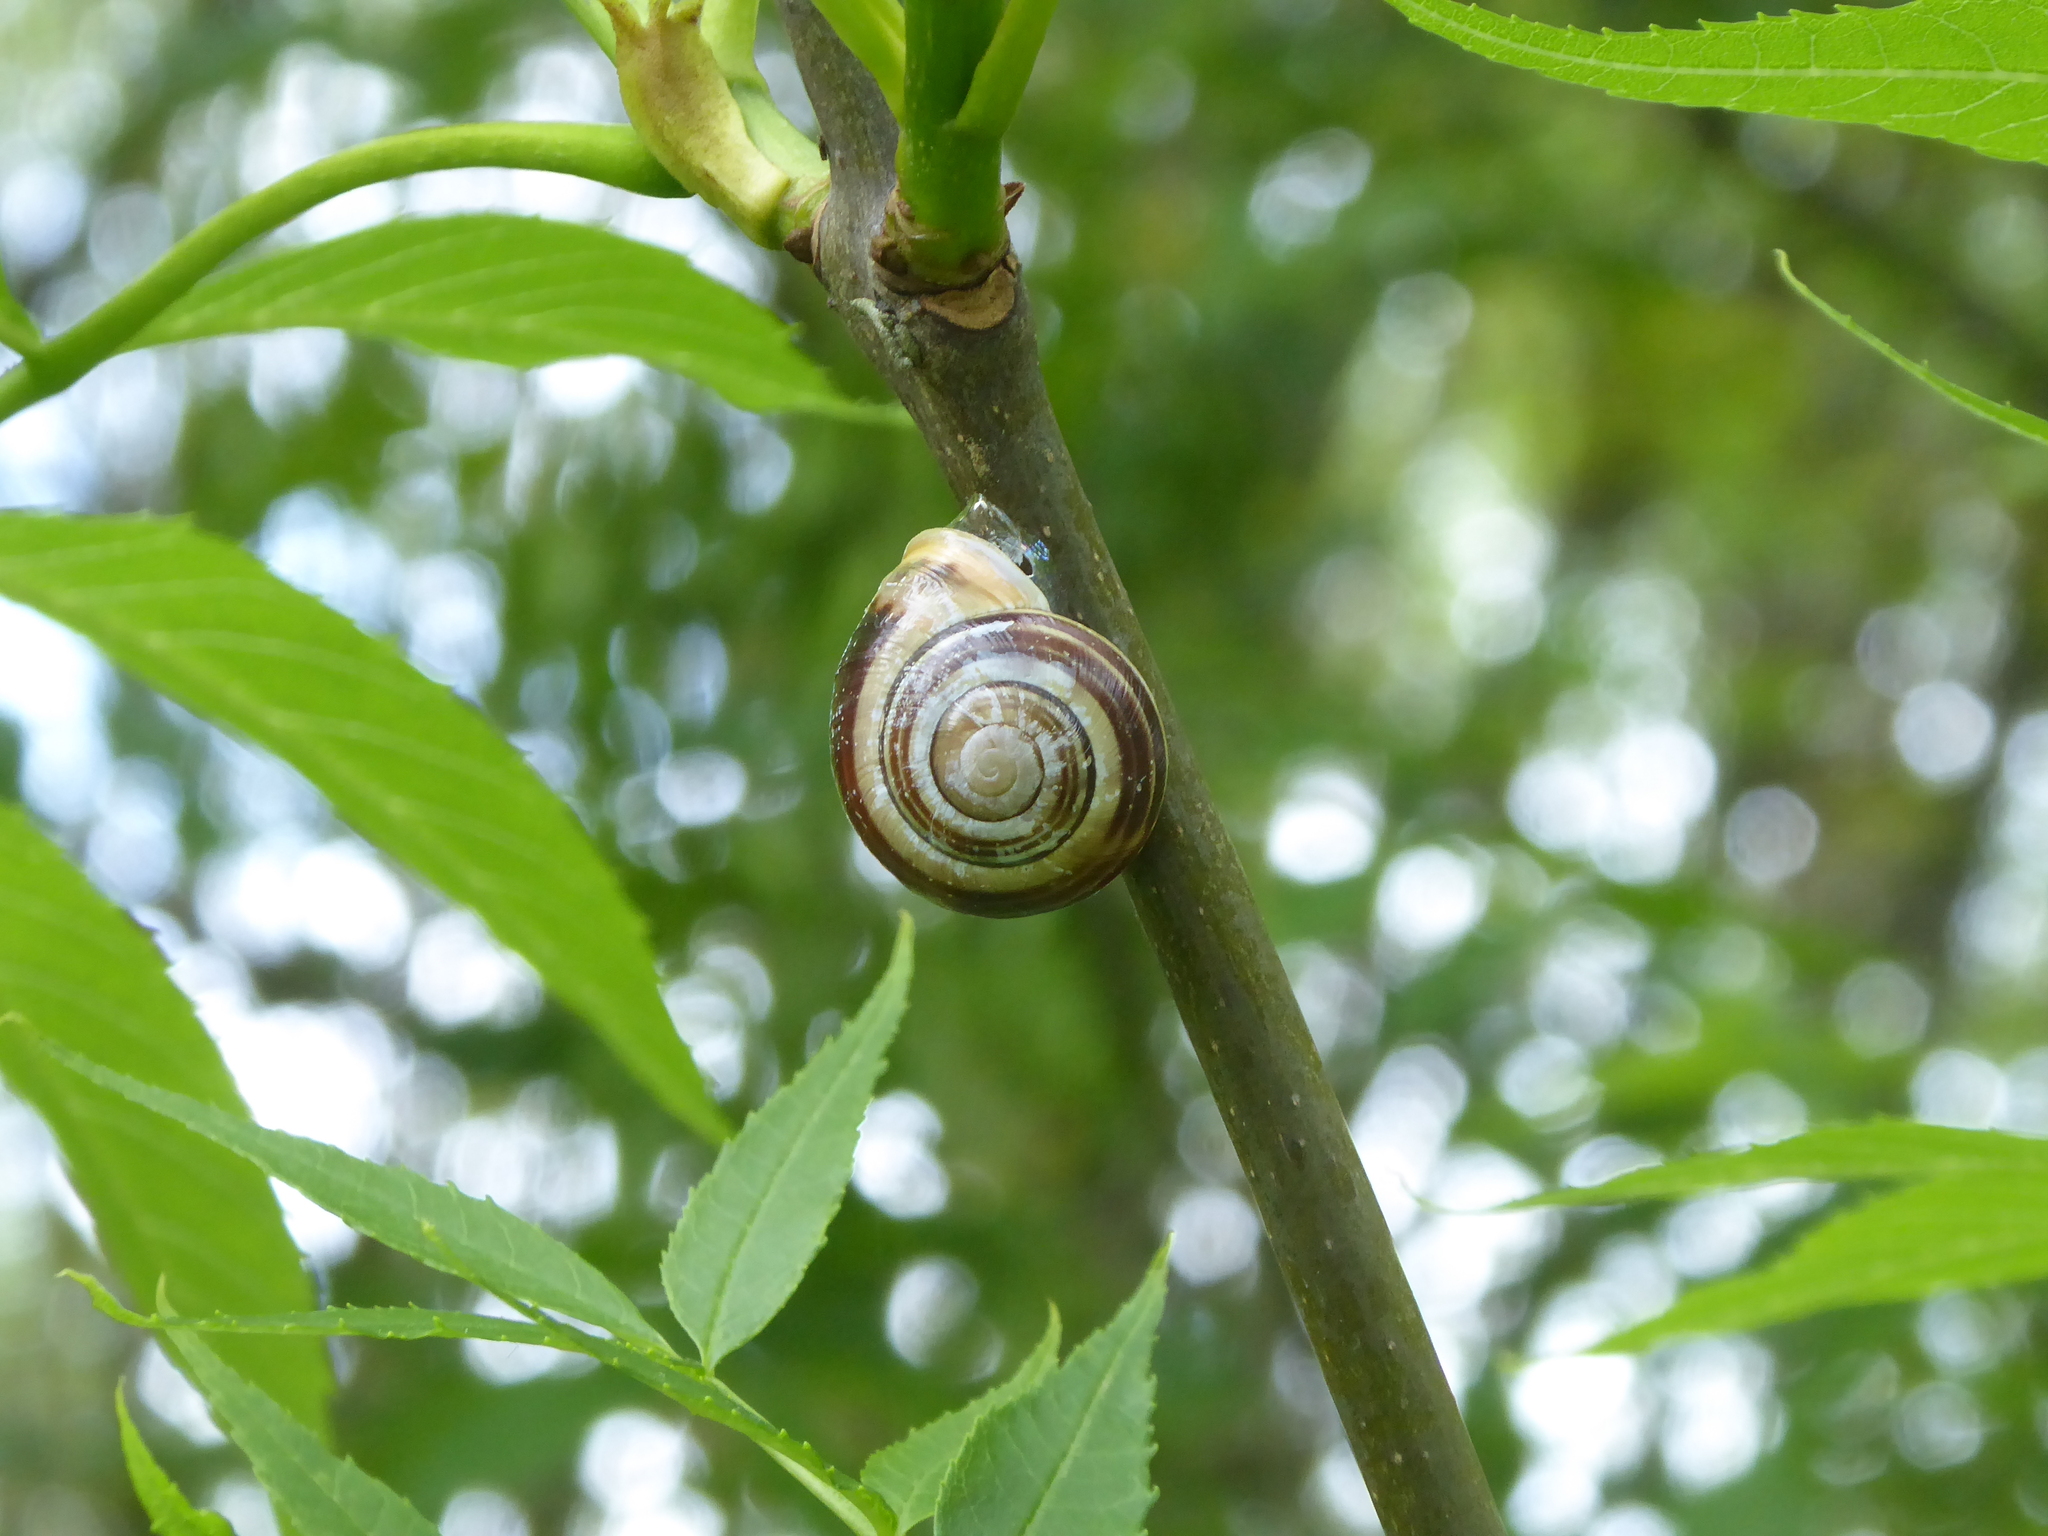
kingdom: Animalia
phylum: Mollusca
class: Gastropoda
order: Stylommatophora
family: Helicidae
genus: Cepaea
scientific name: Cepaea hortensis
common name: White-lip gardensnail
